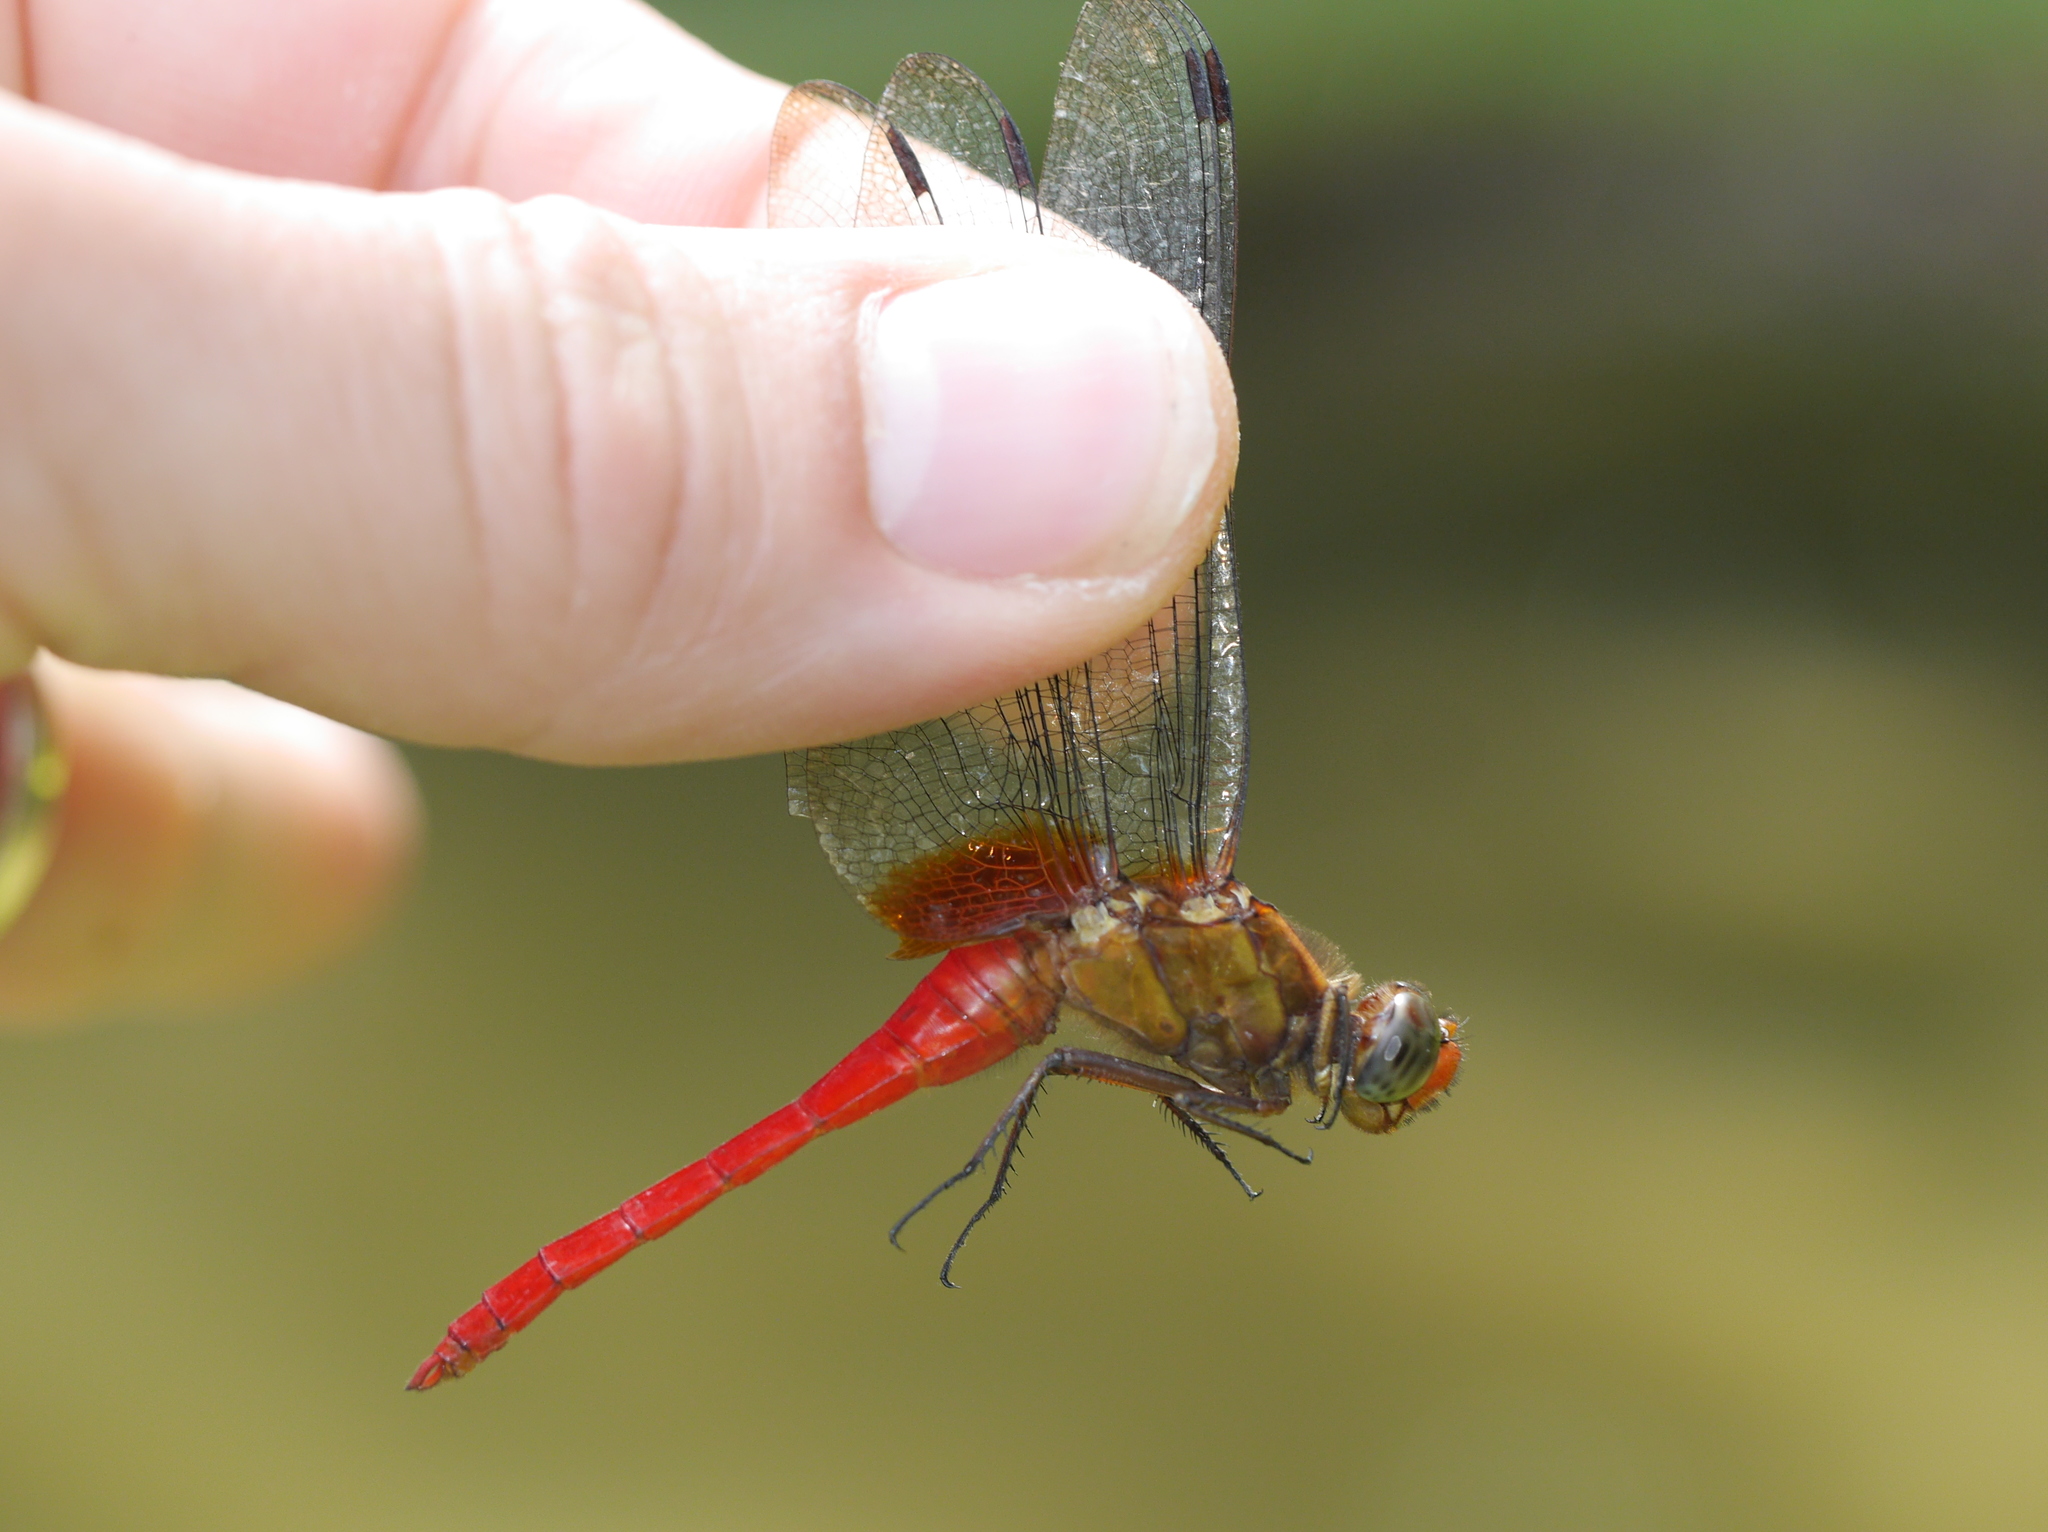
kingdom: Animalia
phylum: Arthropoda
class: Insecta
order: Odonata
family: Libellulidae
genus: Orthetrum
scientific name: Orthetrum testaceum
